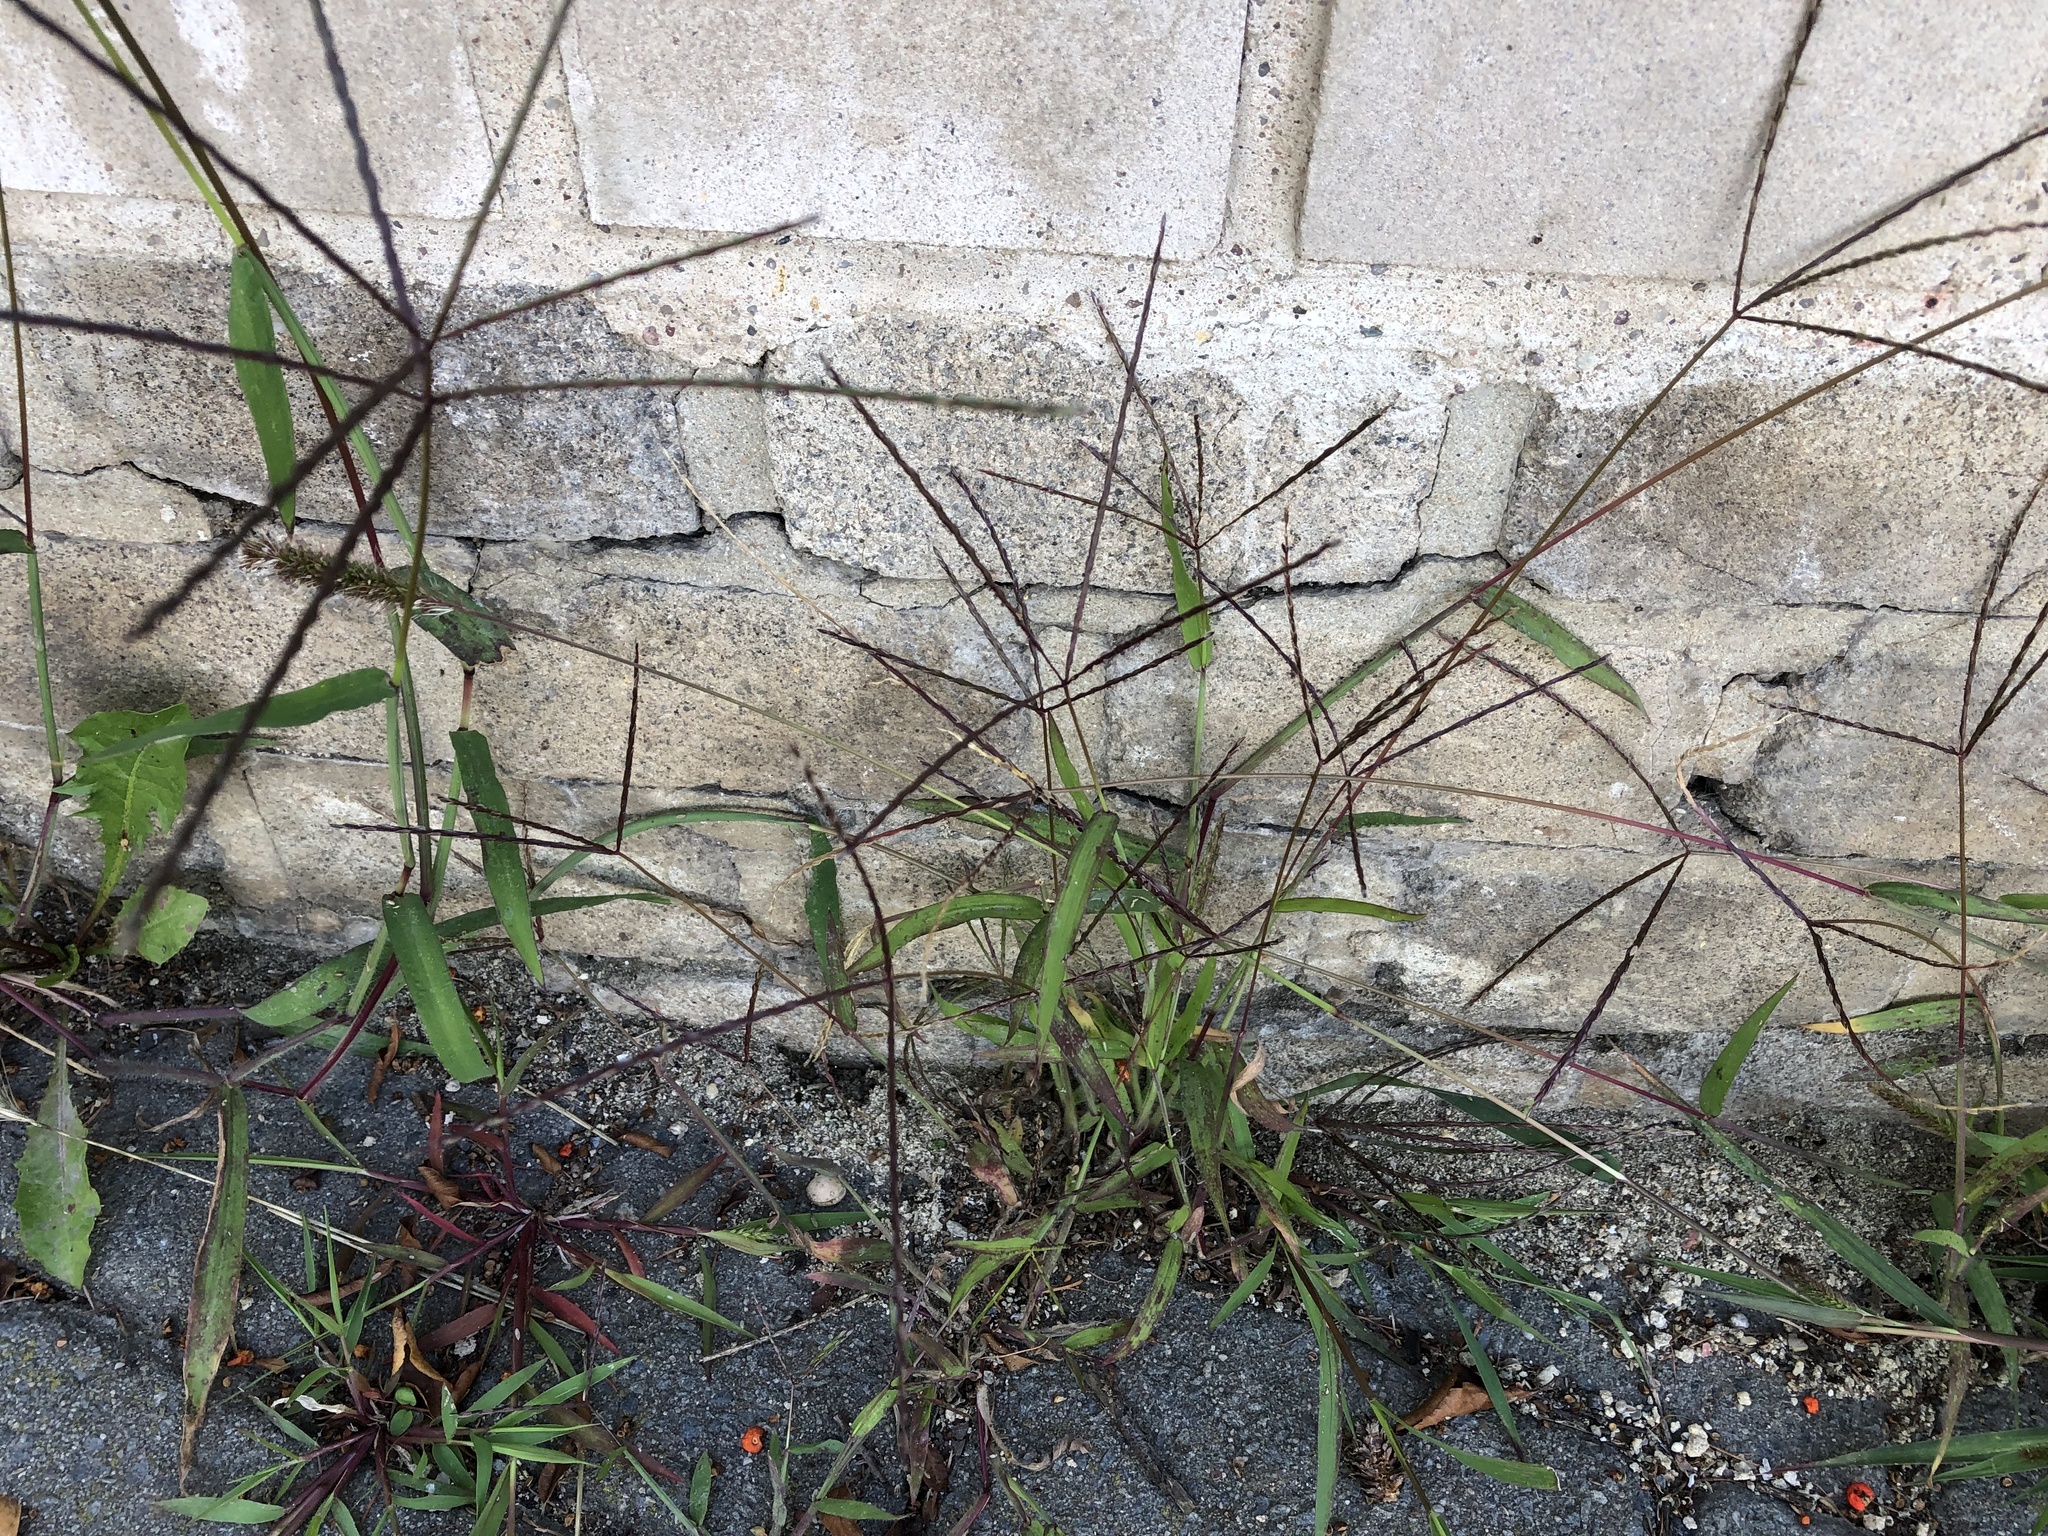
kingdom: Plantae
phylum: Tracheophyta
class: Liliopsida
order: Poales
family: Poaceae
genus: Digitaria
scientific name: Digitaria sanguinalis
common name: Hairy crabgrass
